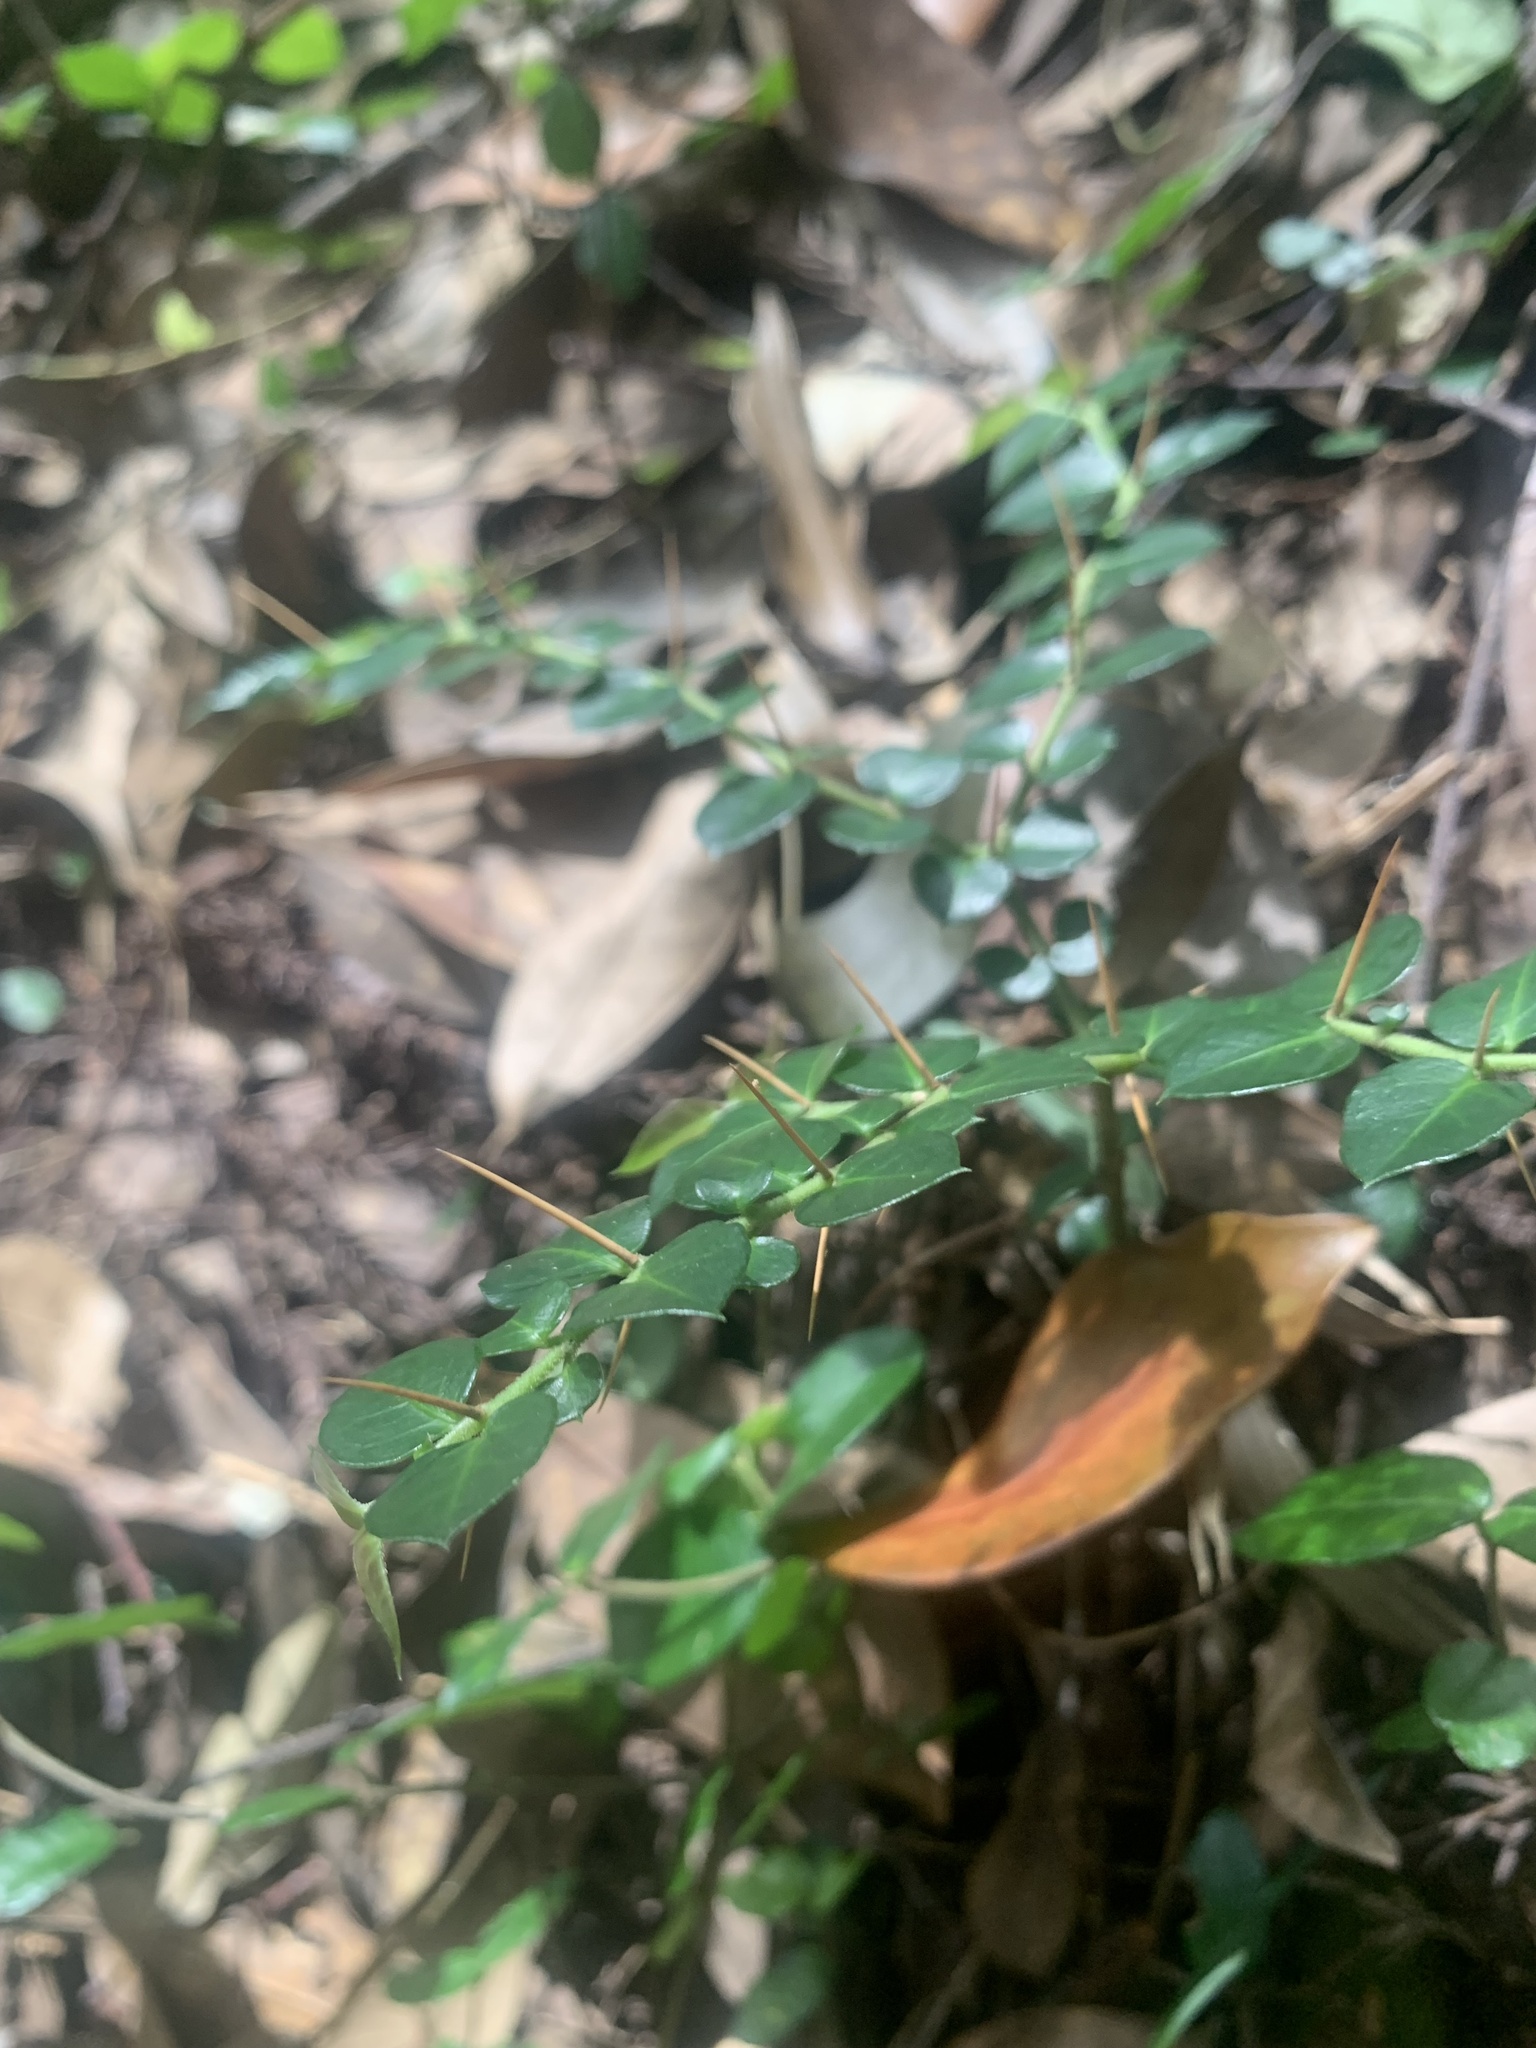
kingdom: Plantae
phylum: Tracheophyta
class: Magnoliopsida
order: Gentianales
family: Rubiaceae
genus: Damnacanthus
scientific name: Damnacanthus indicus
